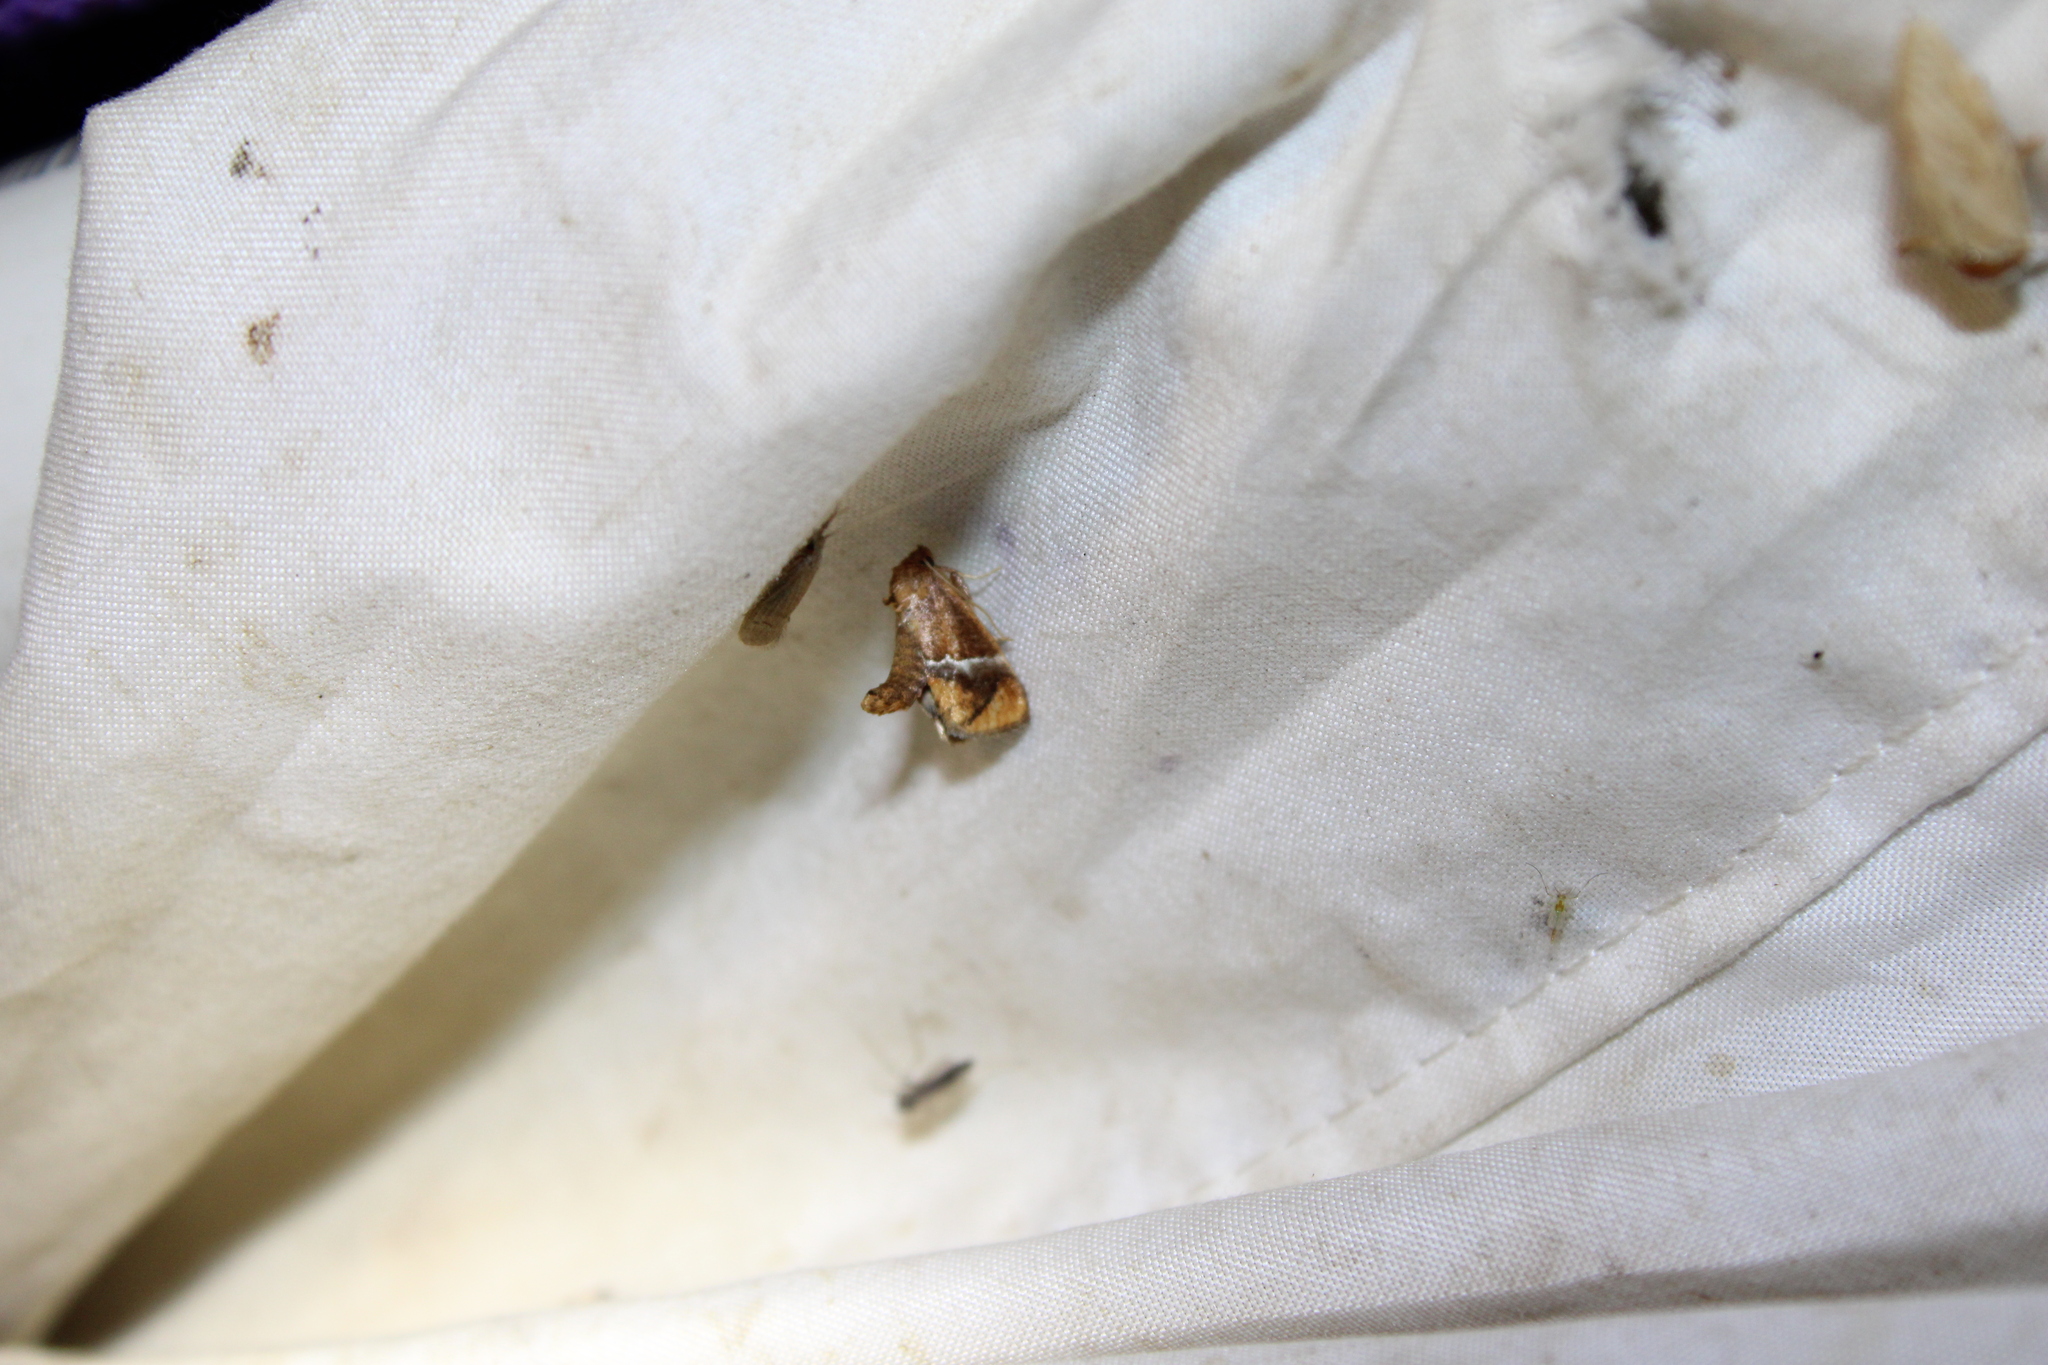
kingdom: Animalia
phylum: Arthropoda
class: Insecta
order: Lepidoptera
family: Limacodidae
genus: Lithacodes
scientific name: Lithacodes fasciola
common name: Yellow-shouldered slug moth
